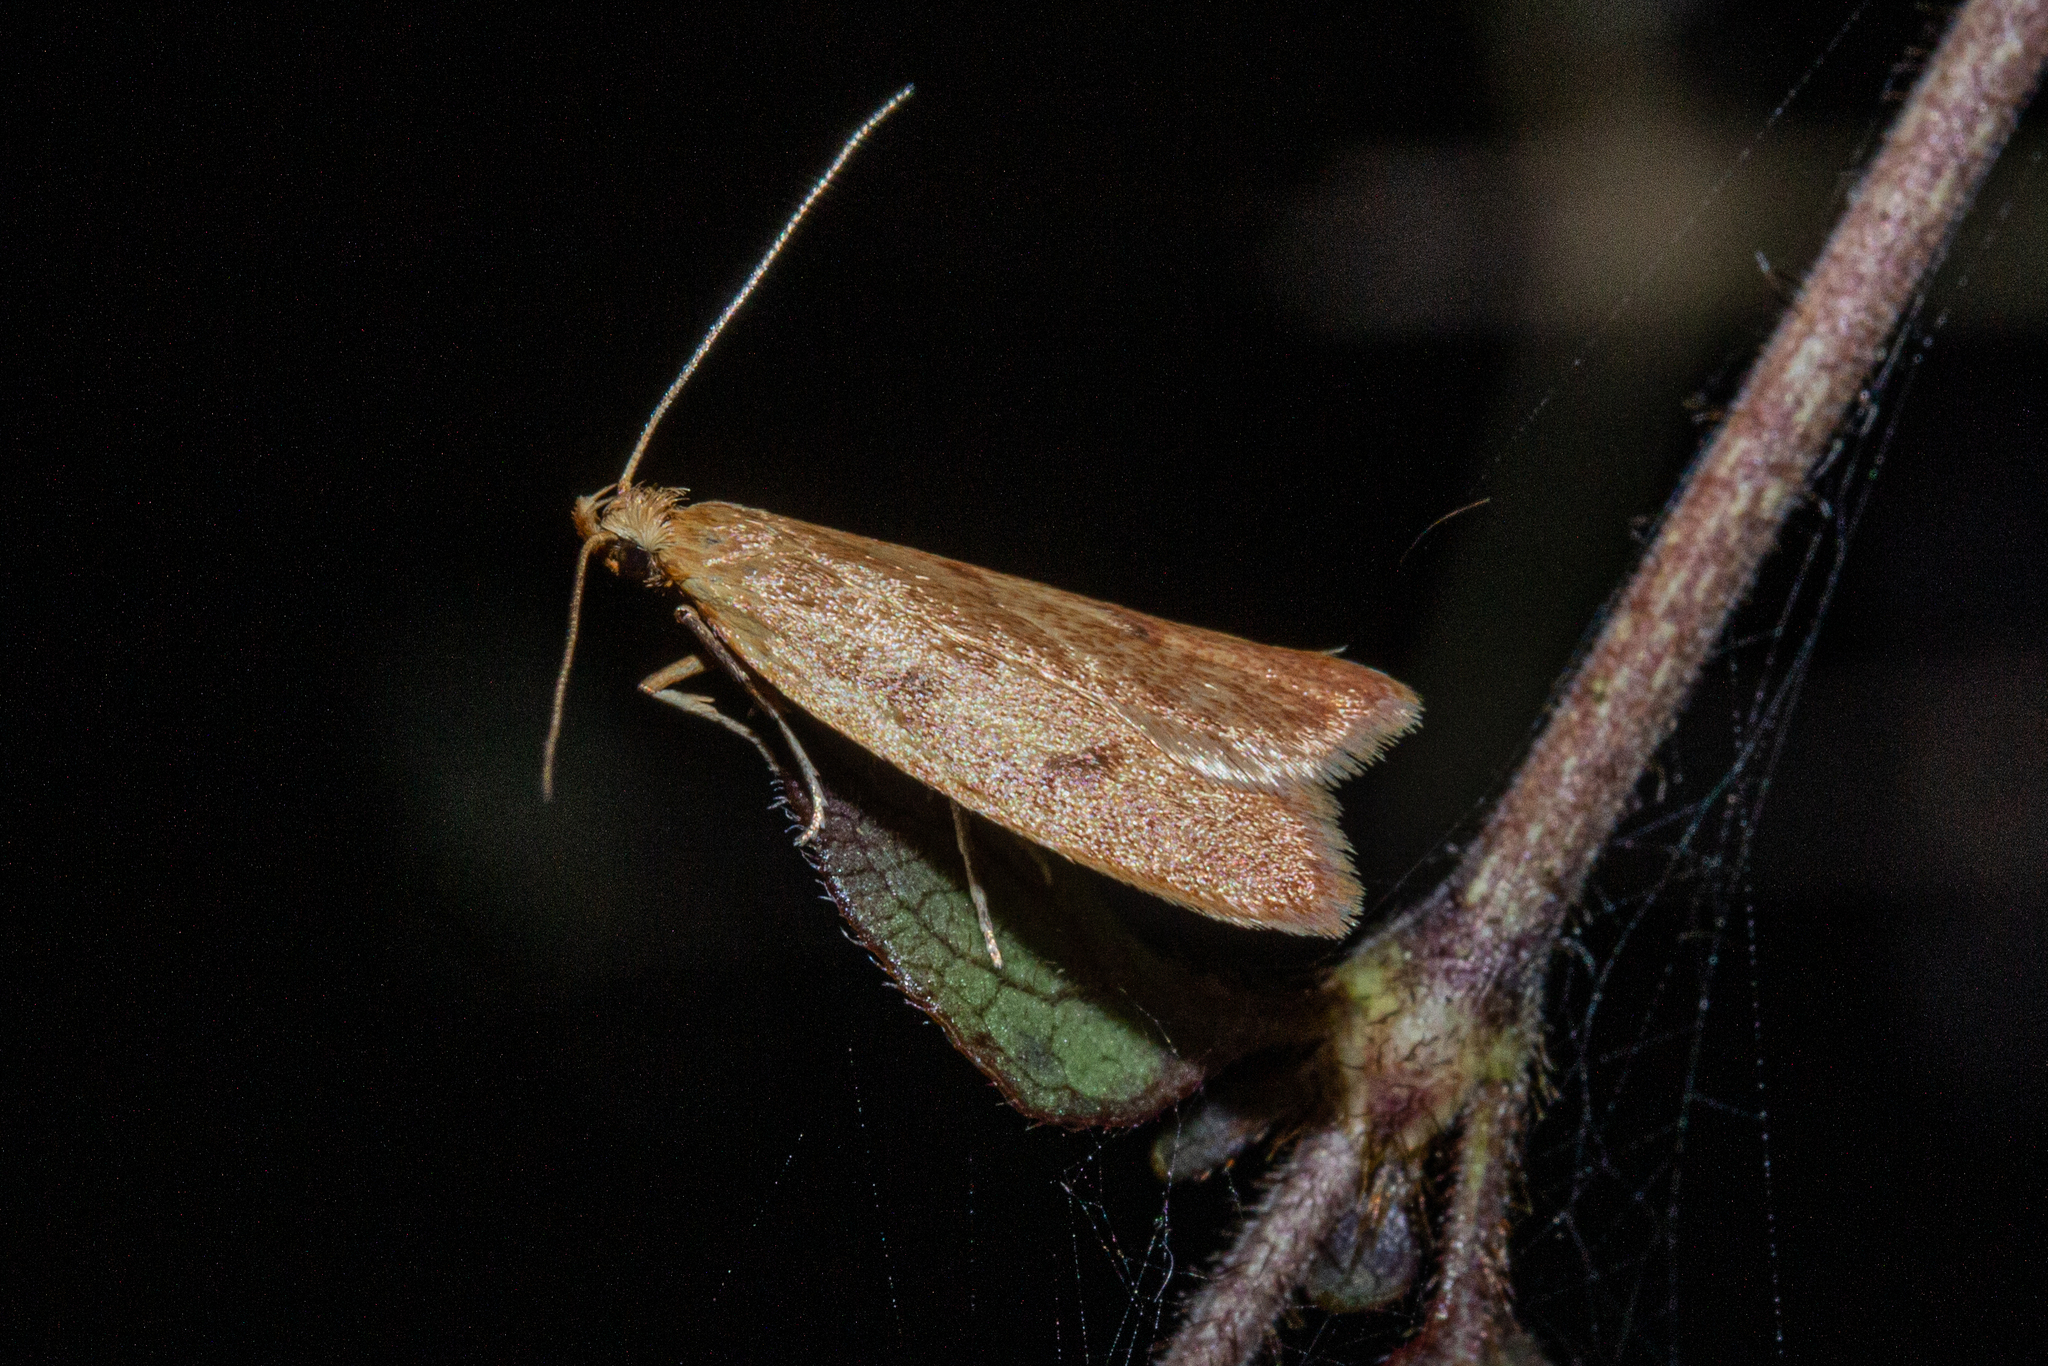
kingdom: Animalia
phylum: Arthropoda
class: Insecta
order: Lepidoptera
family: Oecophoridae
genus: Gymnobathra
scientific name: Gymnobathra sarcoxantha
